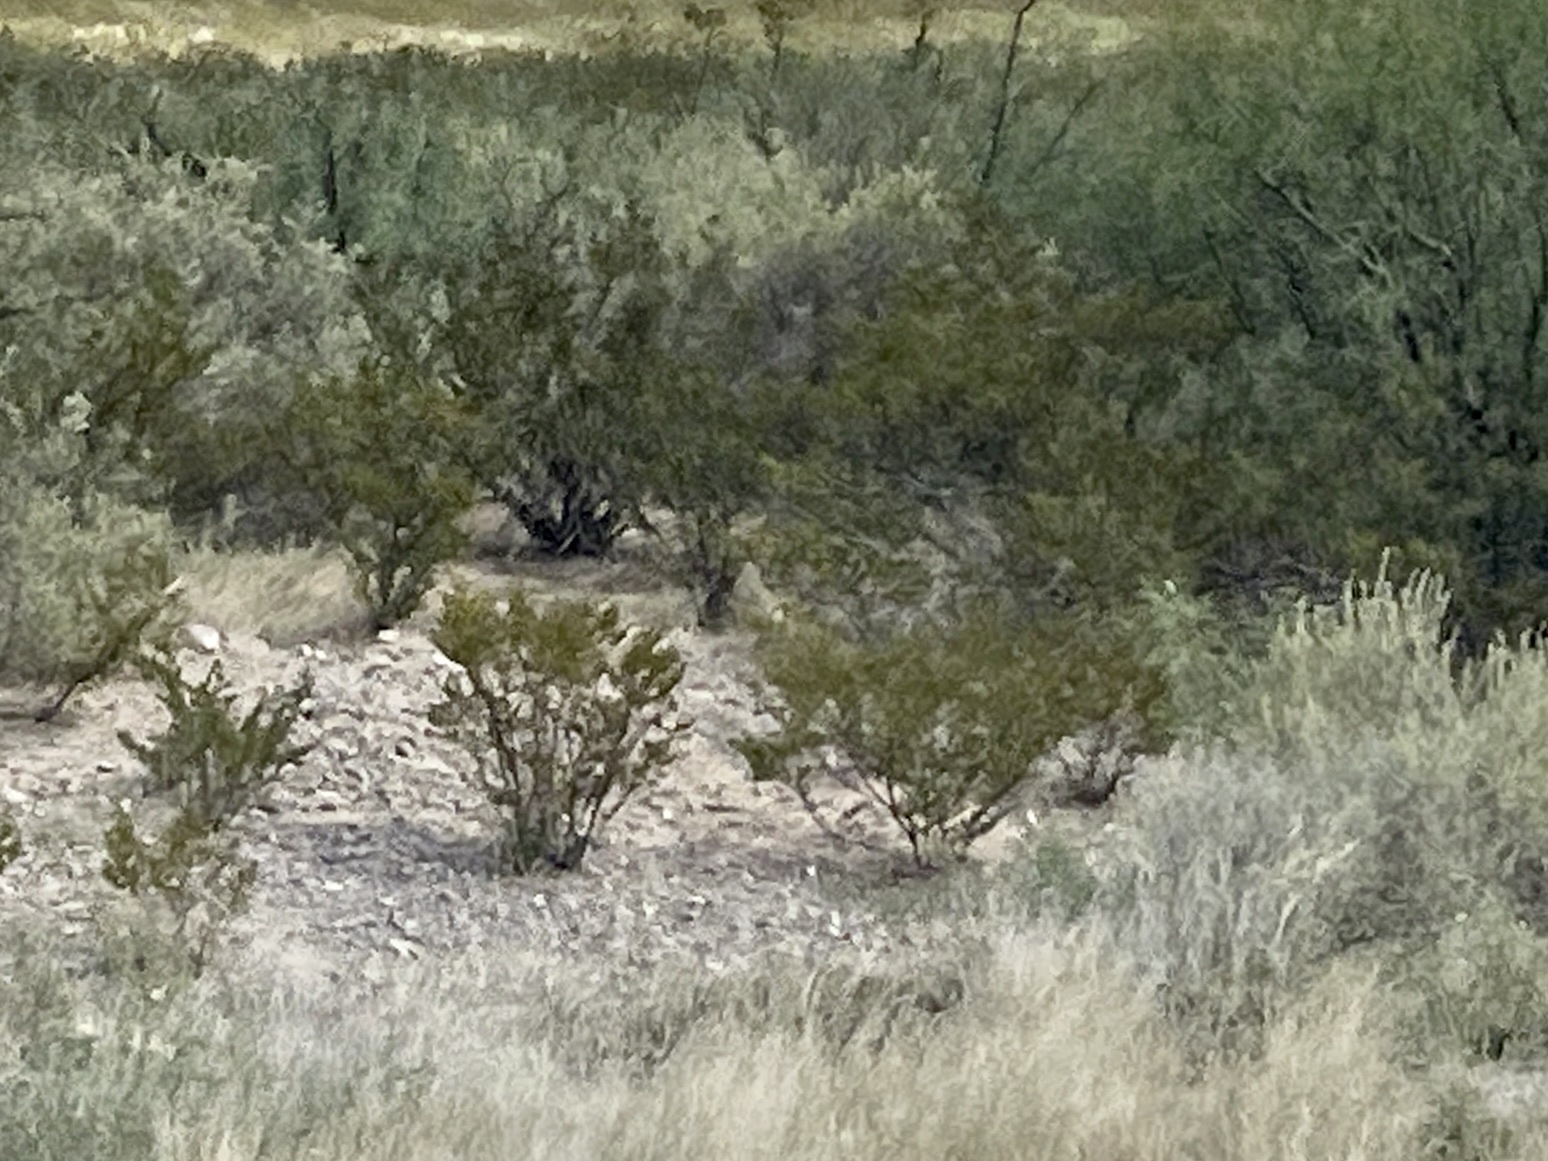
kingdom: Plantae
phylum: Tracheophyta
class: Magnoliopsida
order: Zygophyllales
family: Zygophyllaceae
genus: Larrea
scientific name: Larrea tridentata
